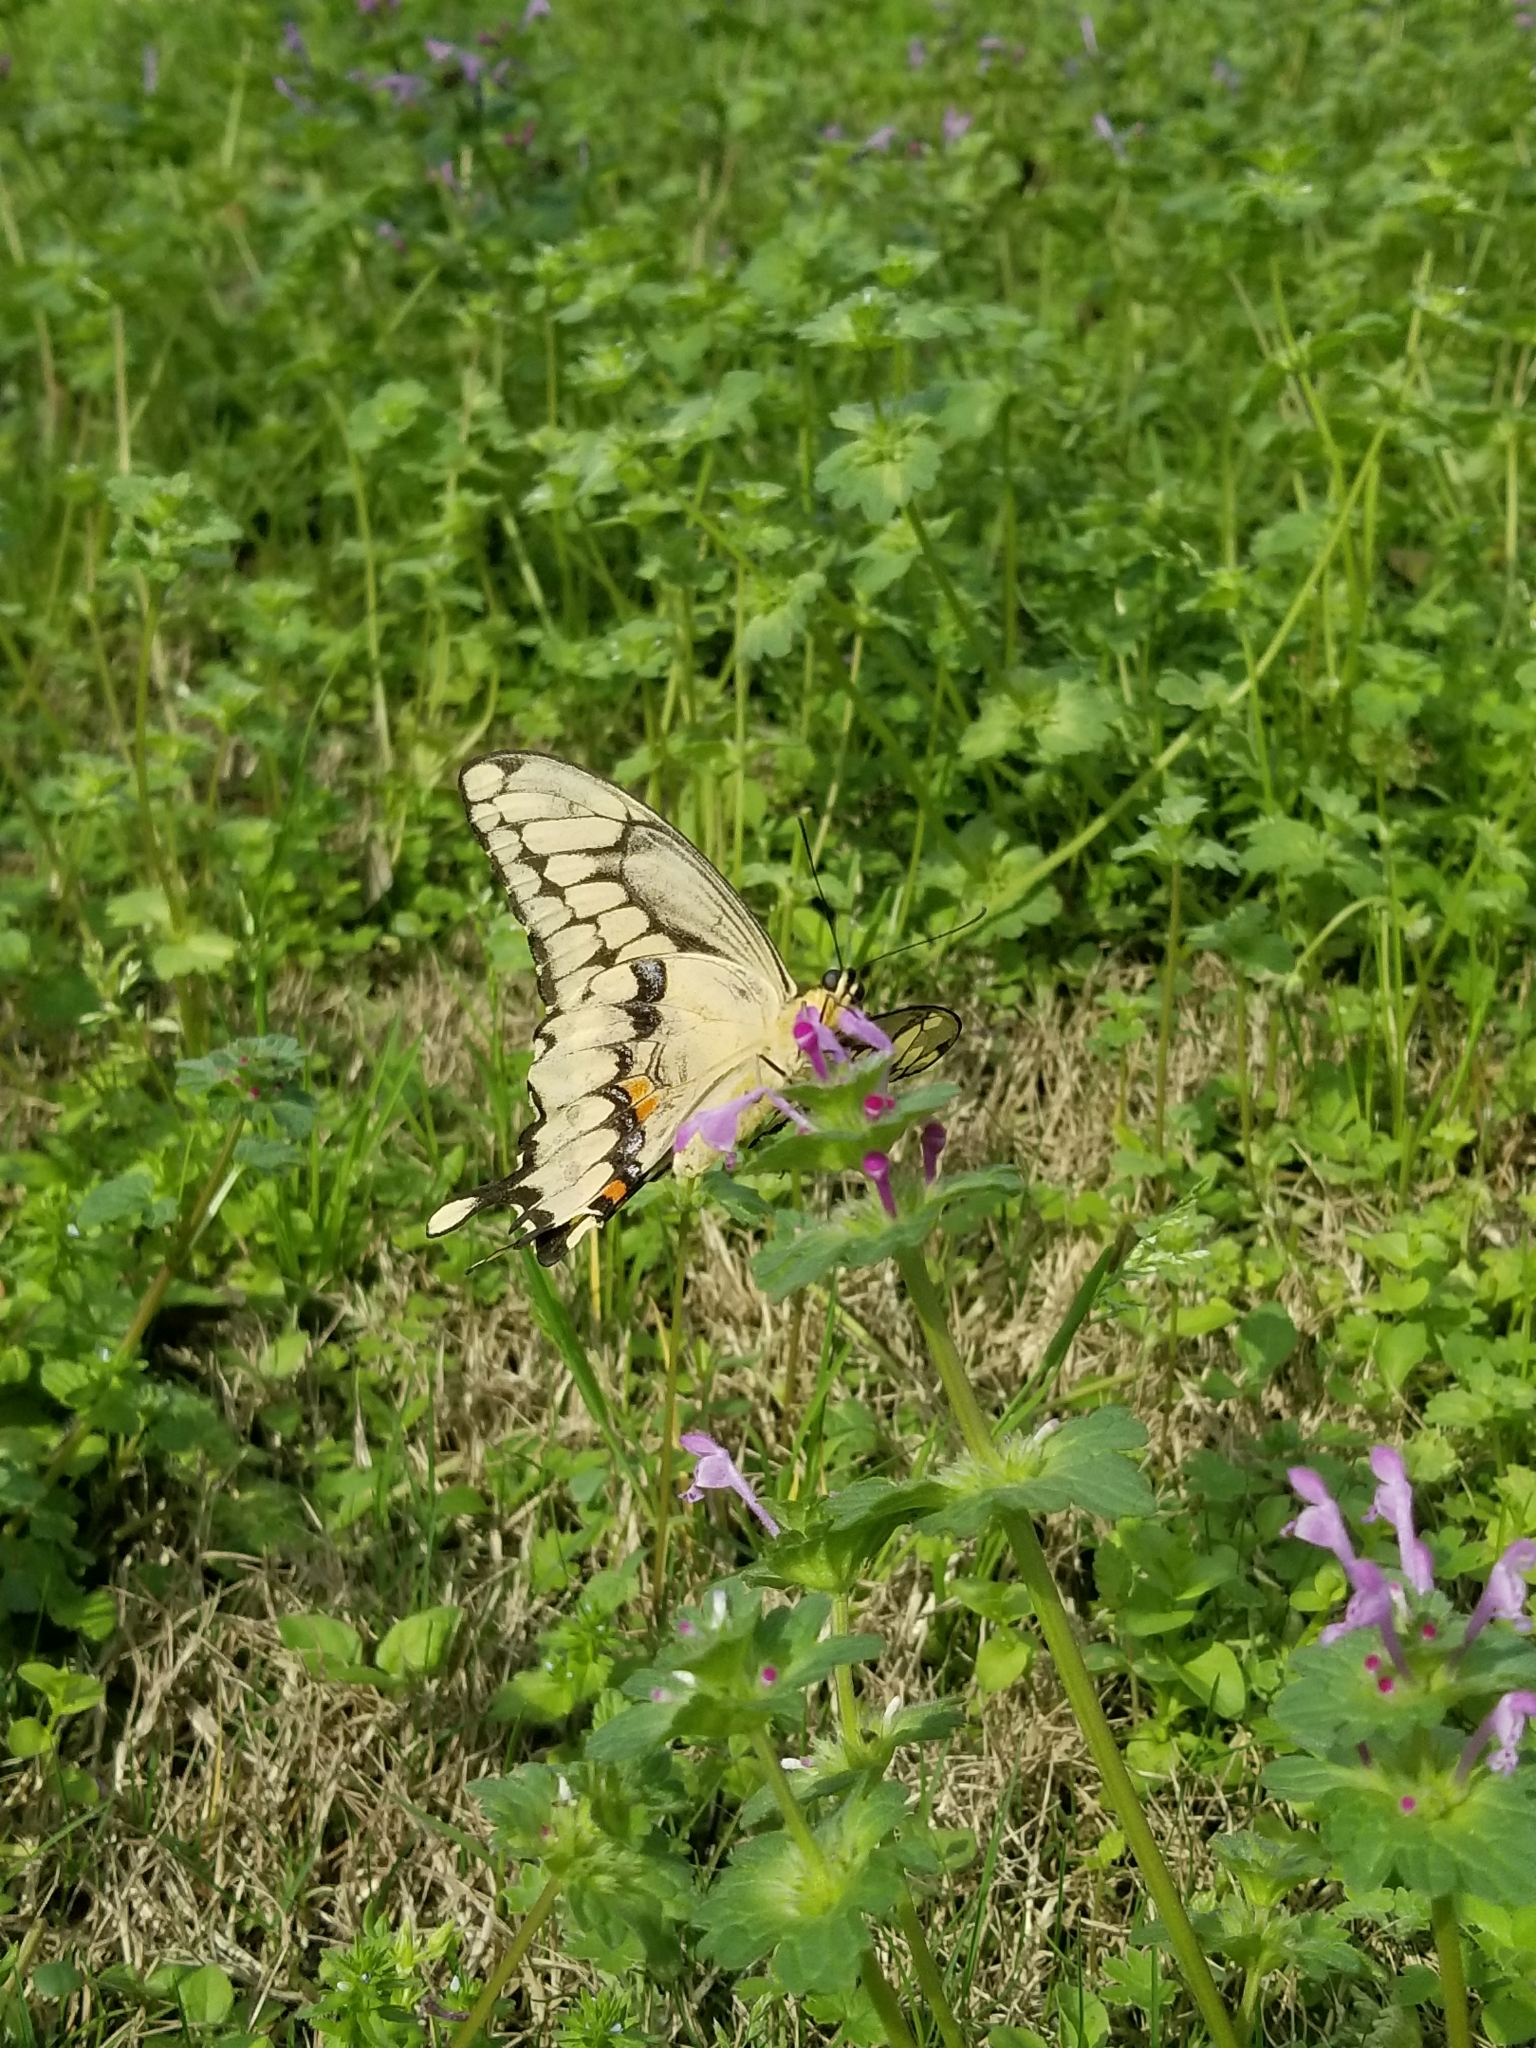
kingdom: Animalia
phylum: Arthropoda
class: Insecta
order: Lepidoptera
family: Papilionidae
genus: Papilio
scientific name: Papilio rumiko
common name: Western giant swallowtail
